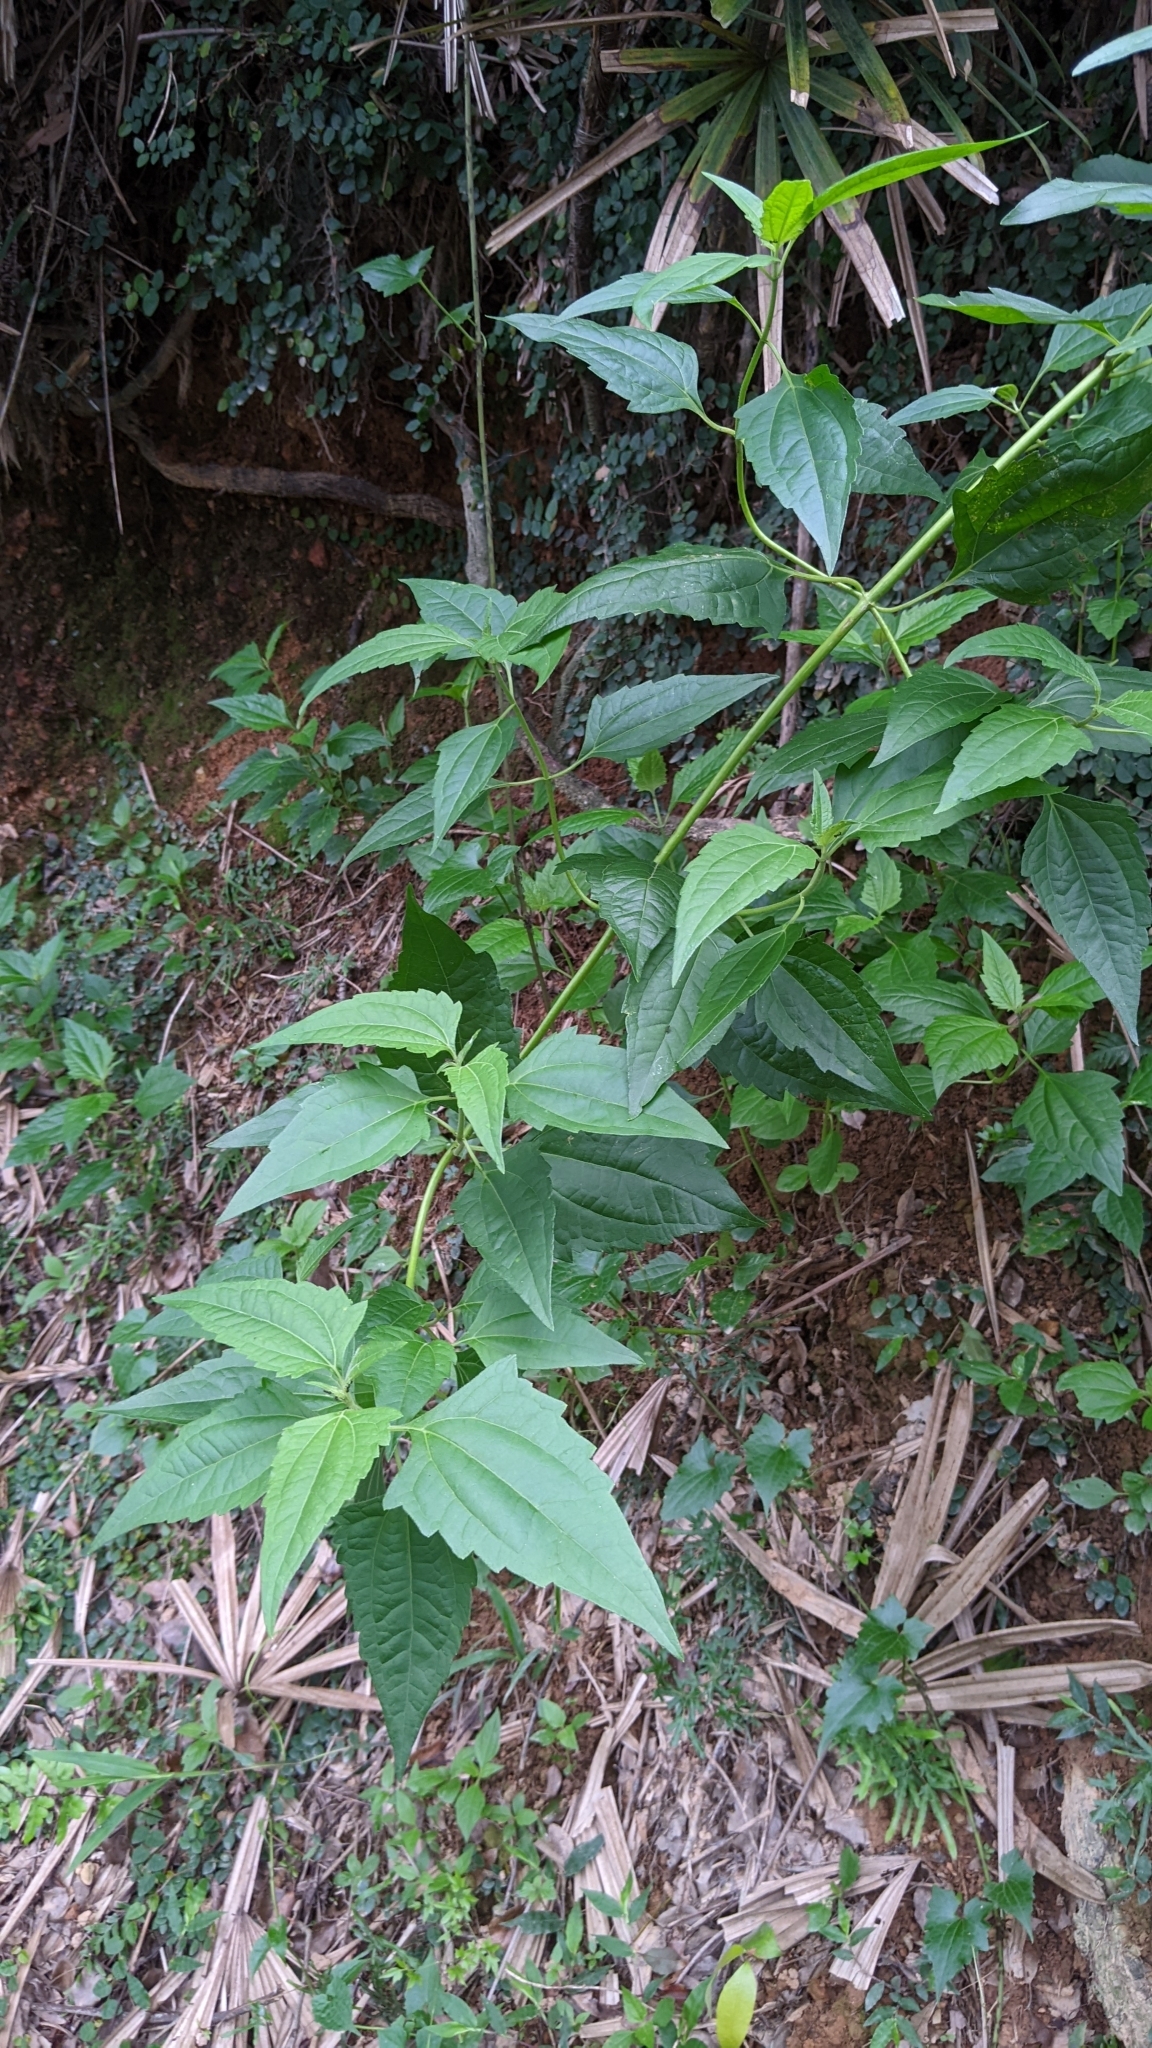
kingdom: Plantae
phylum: Tracheophyta
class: Magnoliopsida
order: Asterales
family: Asteraceae
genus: Chromolaena
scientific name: Chromolaena odorata
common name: Siamweed
